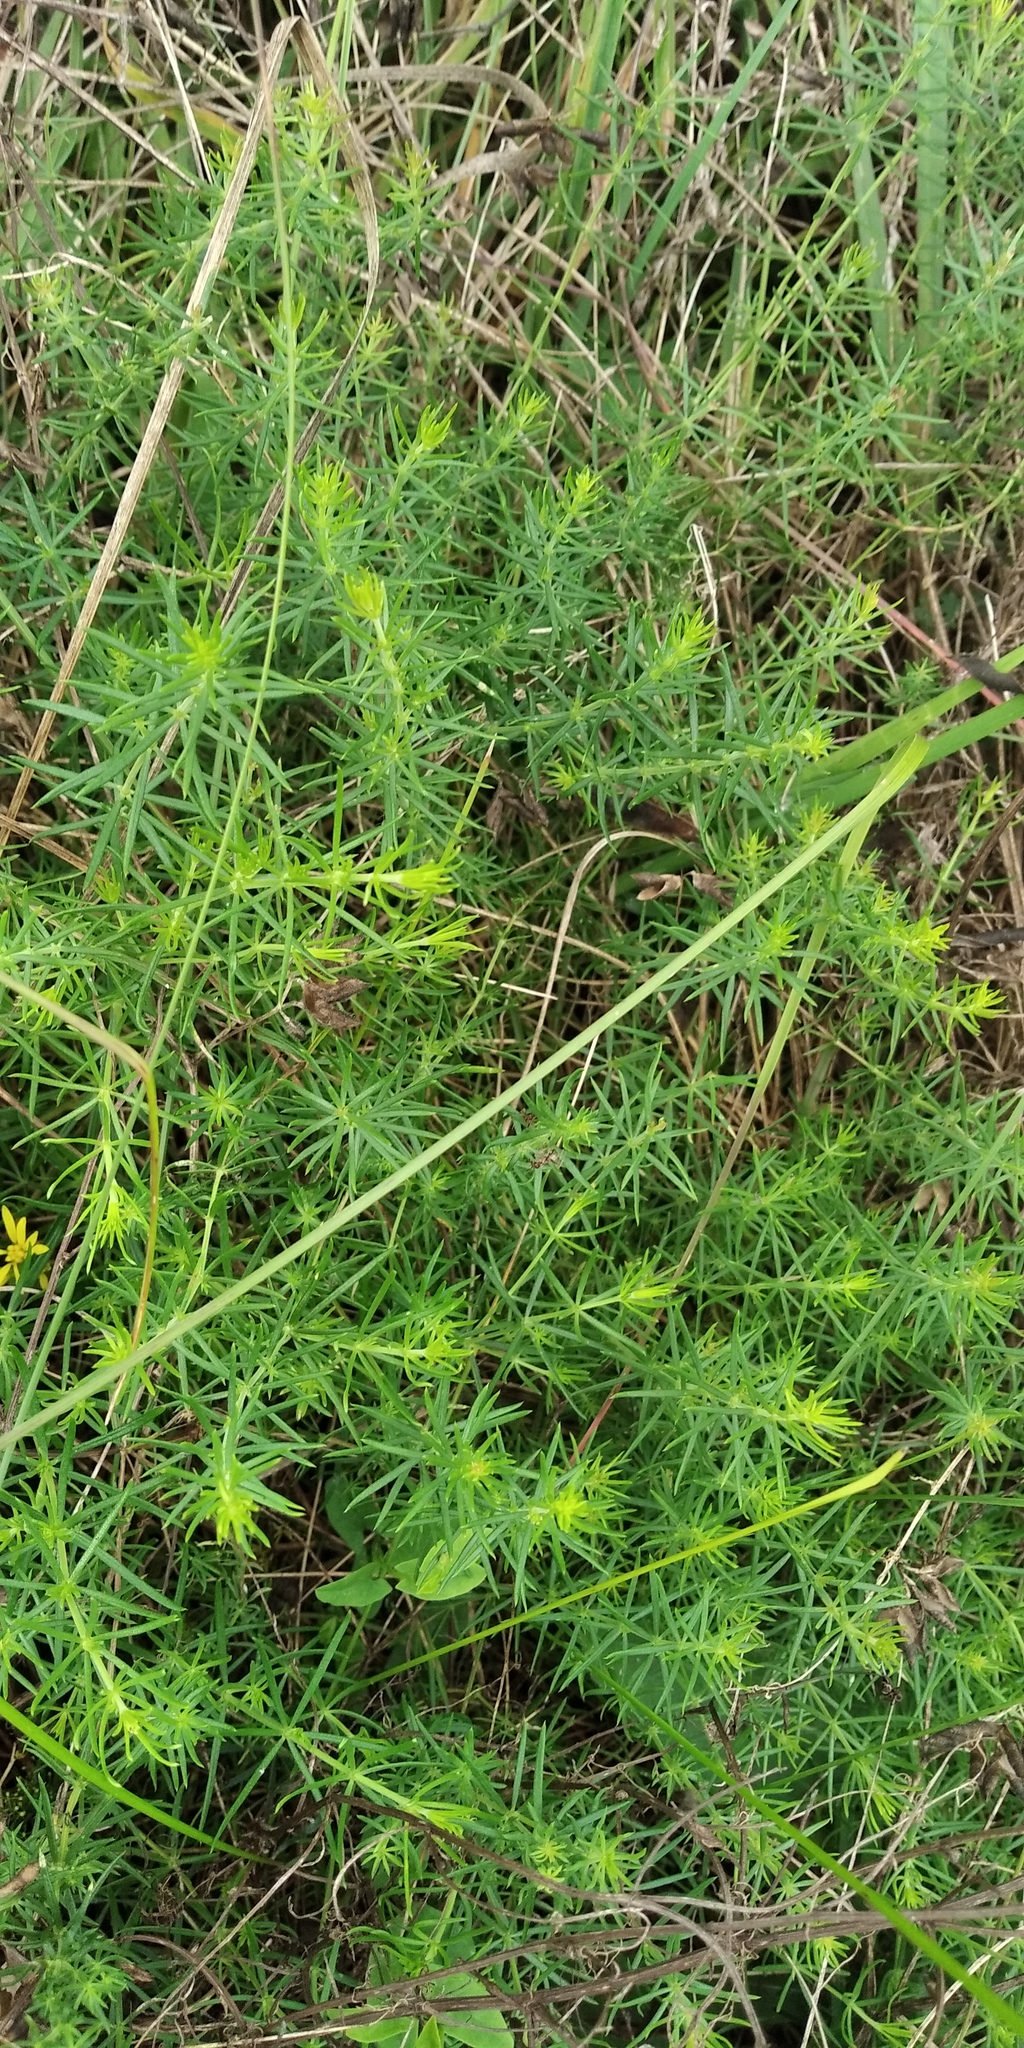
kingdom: Plantae
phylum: Tracheophyta
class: Magnoliopsida
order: Gentianales
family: Rubiaceae
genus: Galium
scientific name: Galium verum
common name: Lady's bedstraw
